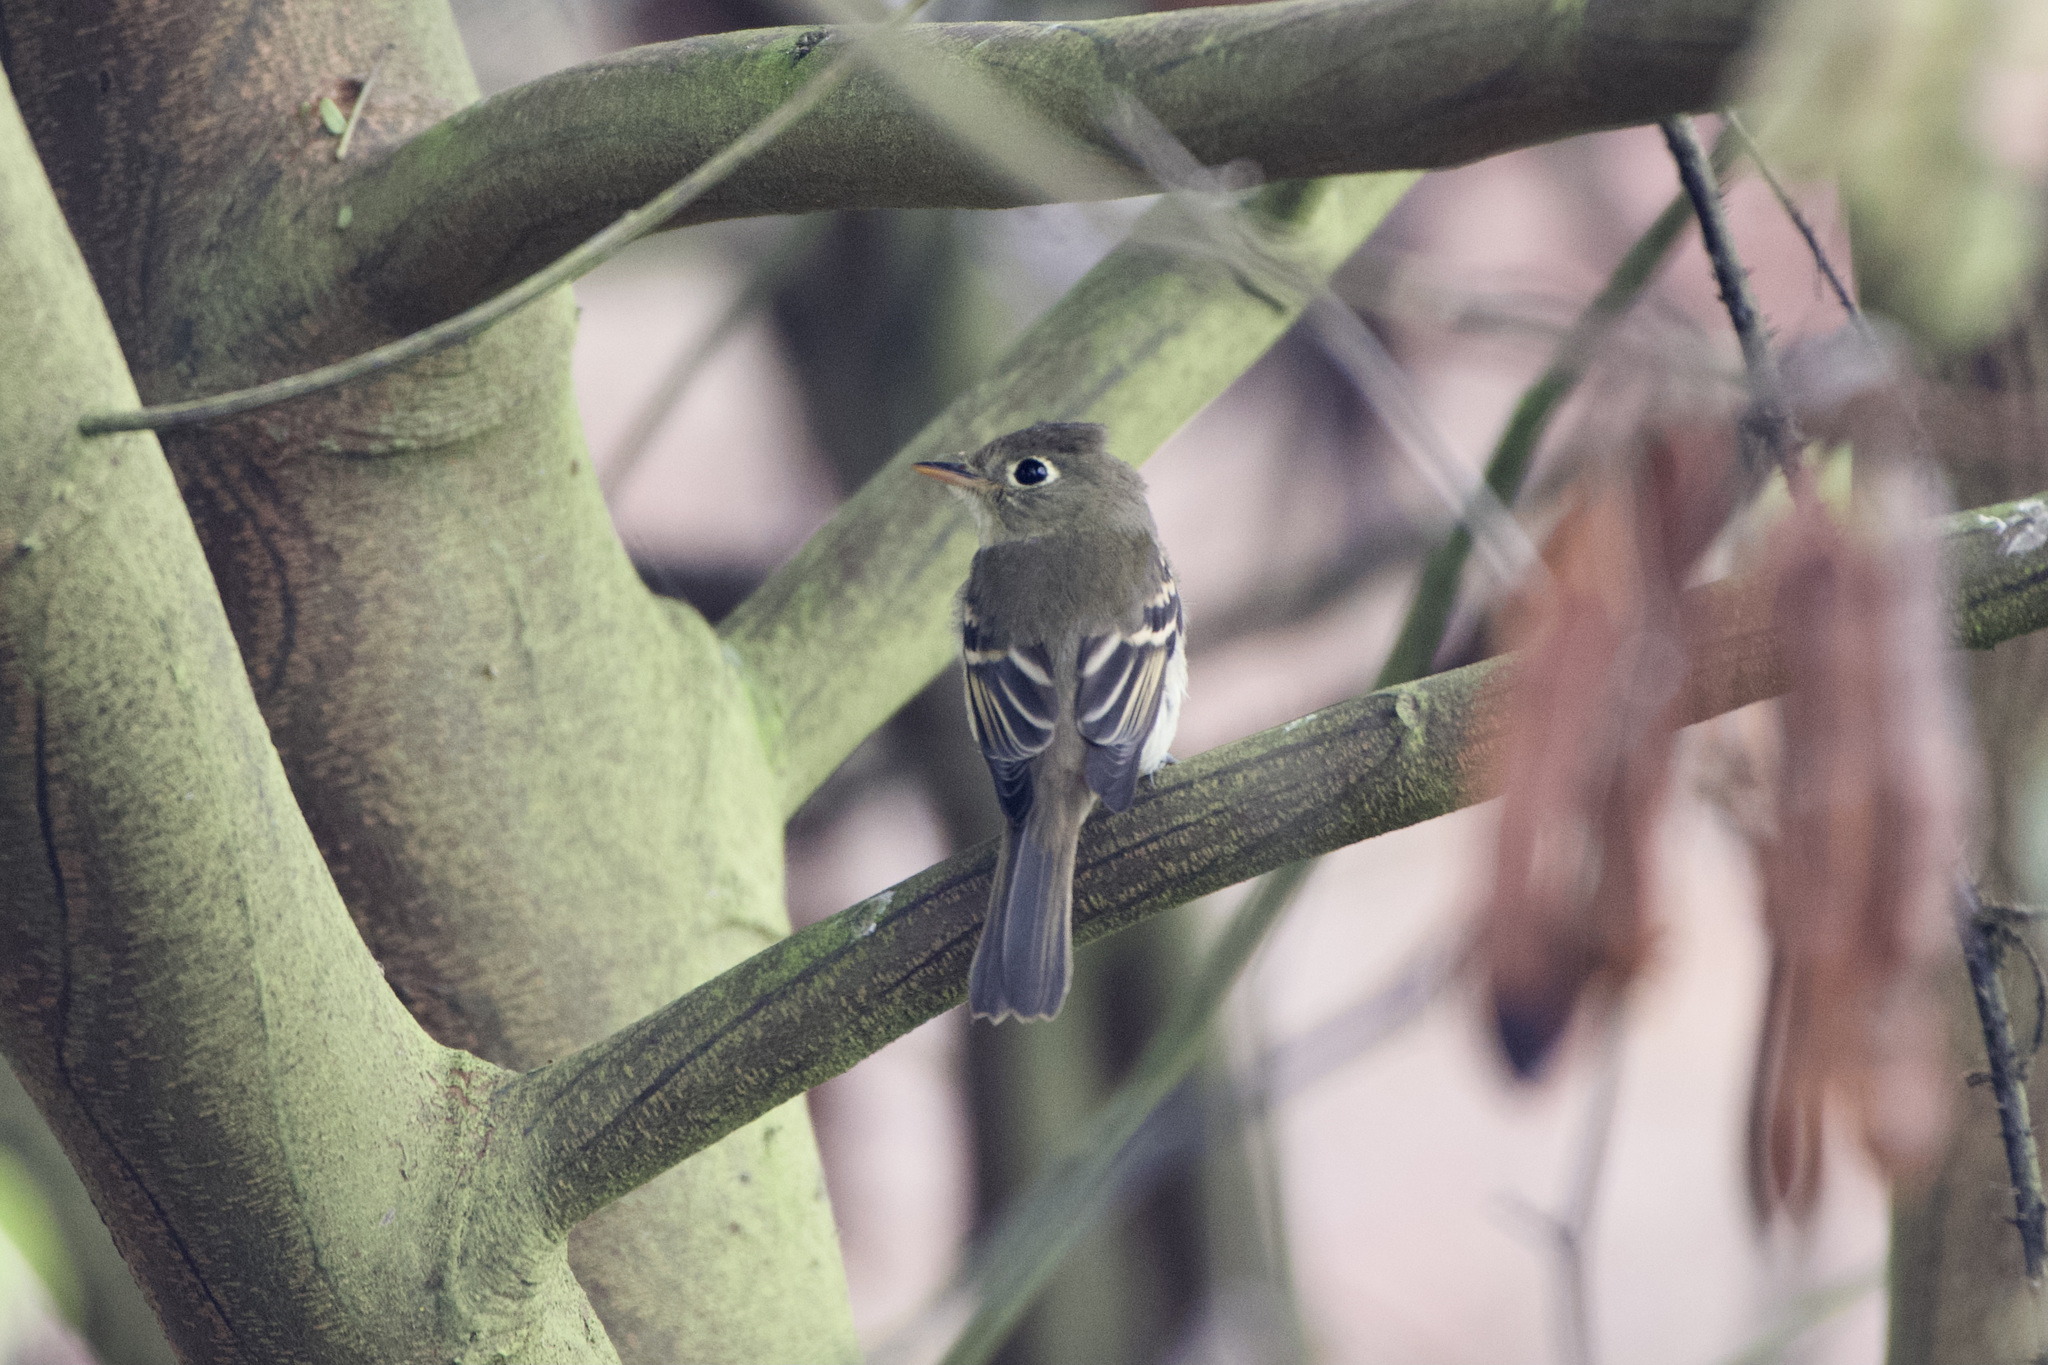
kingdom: Animalia
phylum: Chordata
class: Aves
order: Passeriformes
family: Tyrannidae
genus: Empidonax
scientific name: Empidonax difficilis
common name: Pacific-slope flycatcher
